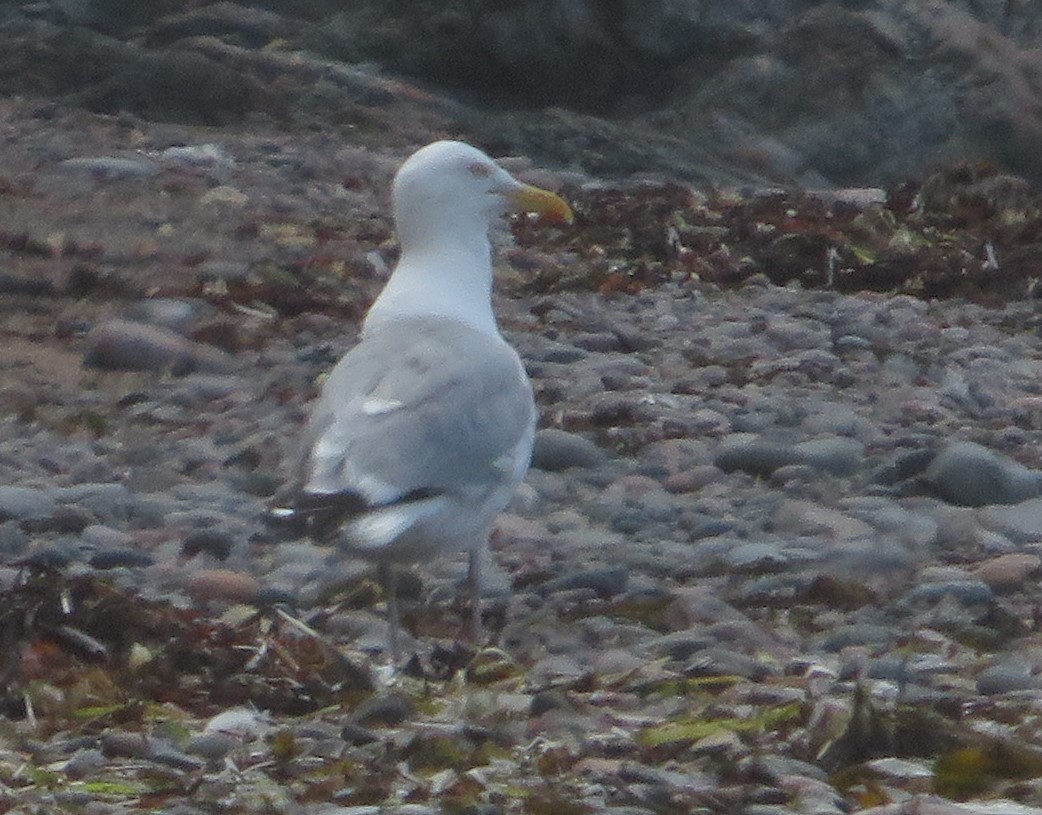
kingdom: Animalia
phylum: Chordata
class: Aves
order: Charadriiformes
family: Laridae
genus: Larus
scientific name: Larus argentatus
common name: Herring gull
